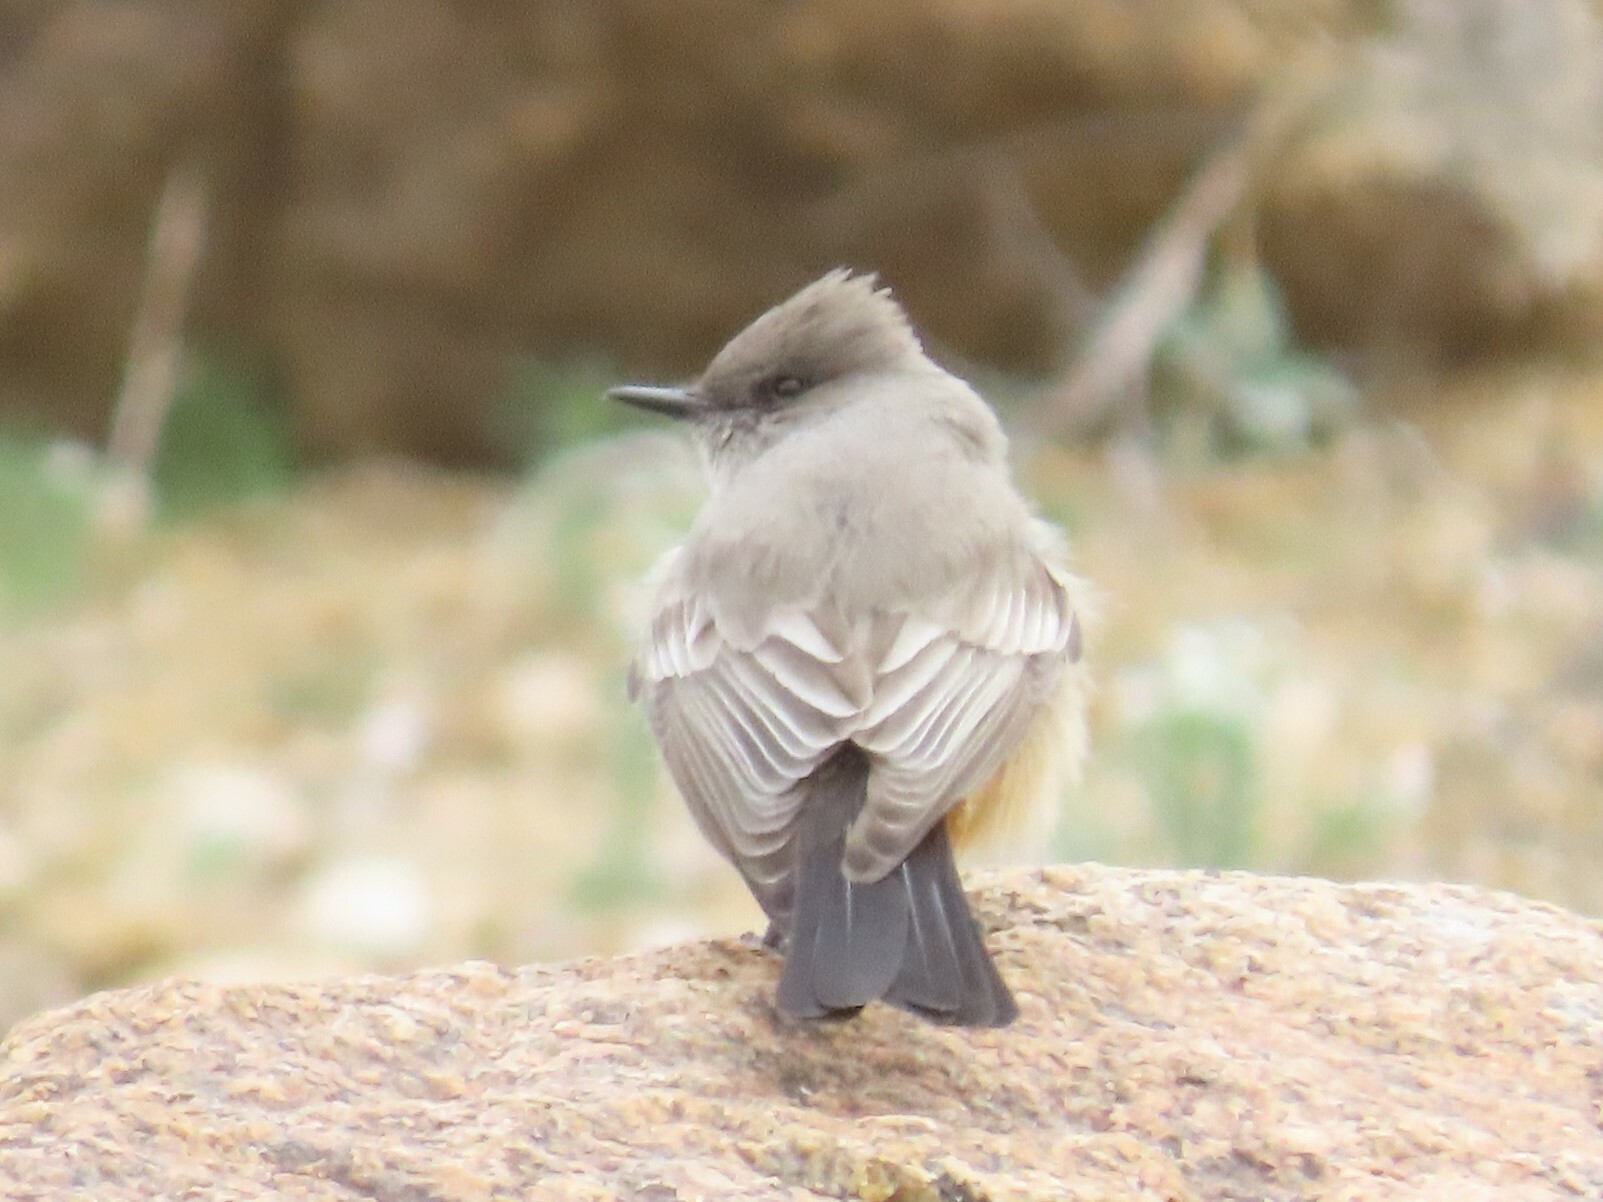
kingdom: Animalia
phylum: Chordata
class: Aves
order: Passeriformes
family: Tyrannidae
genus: Sayornis
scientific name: Sayornis saya
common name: Say's phoebe
